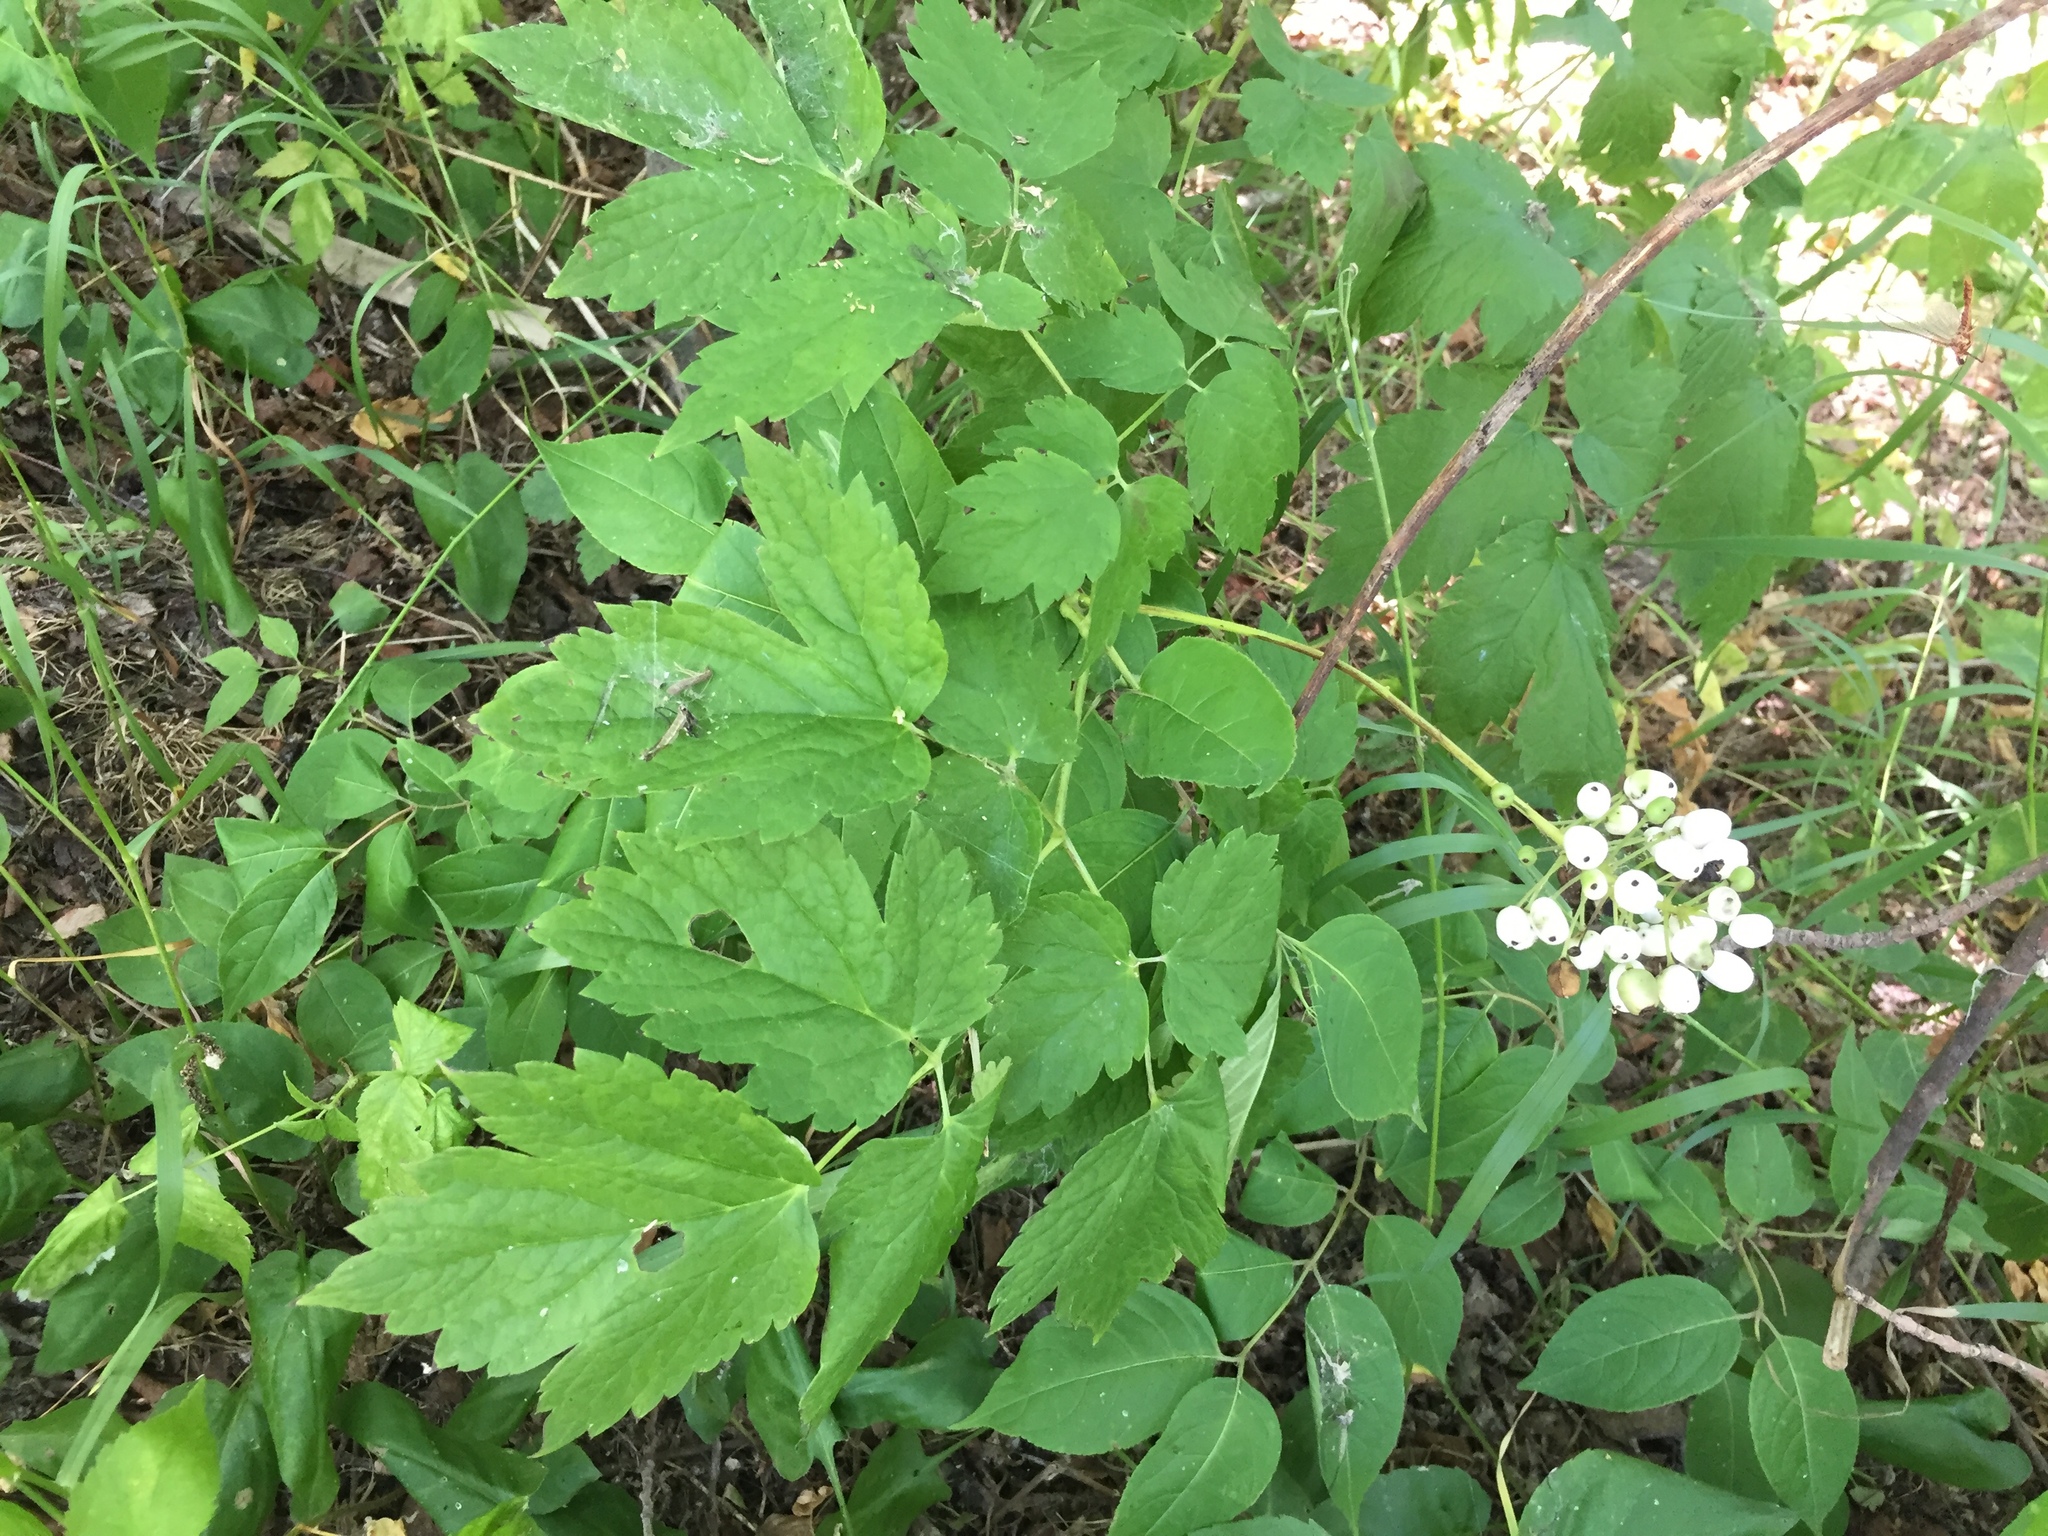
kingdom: Plantae
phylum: Tracheophyta
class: Magnoliopsida
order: Ranunculales
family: Ranunculaceae
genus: Actaea
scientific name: Actaea rubra
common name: Red baneberry
